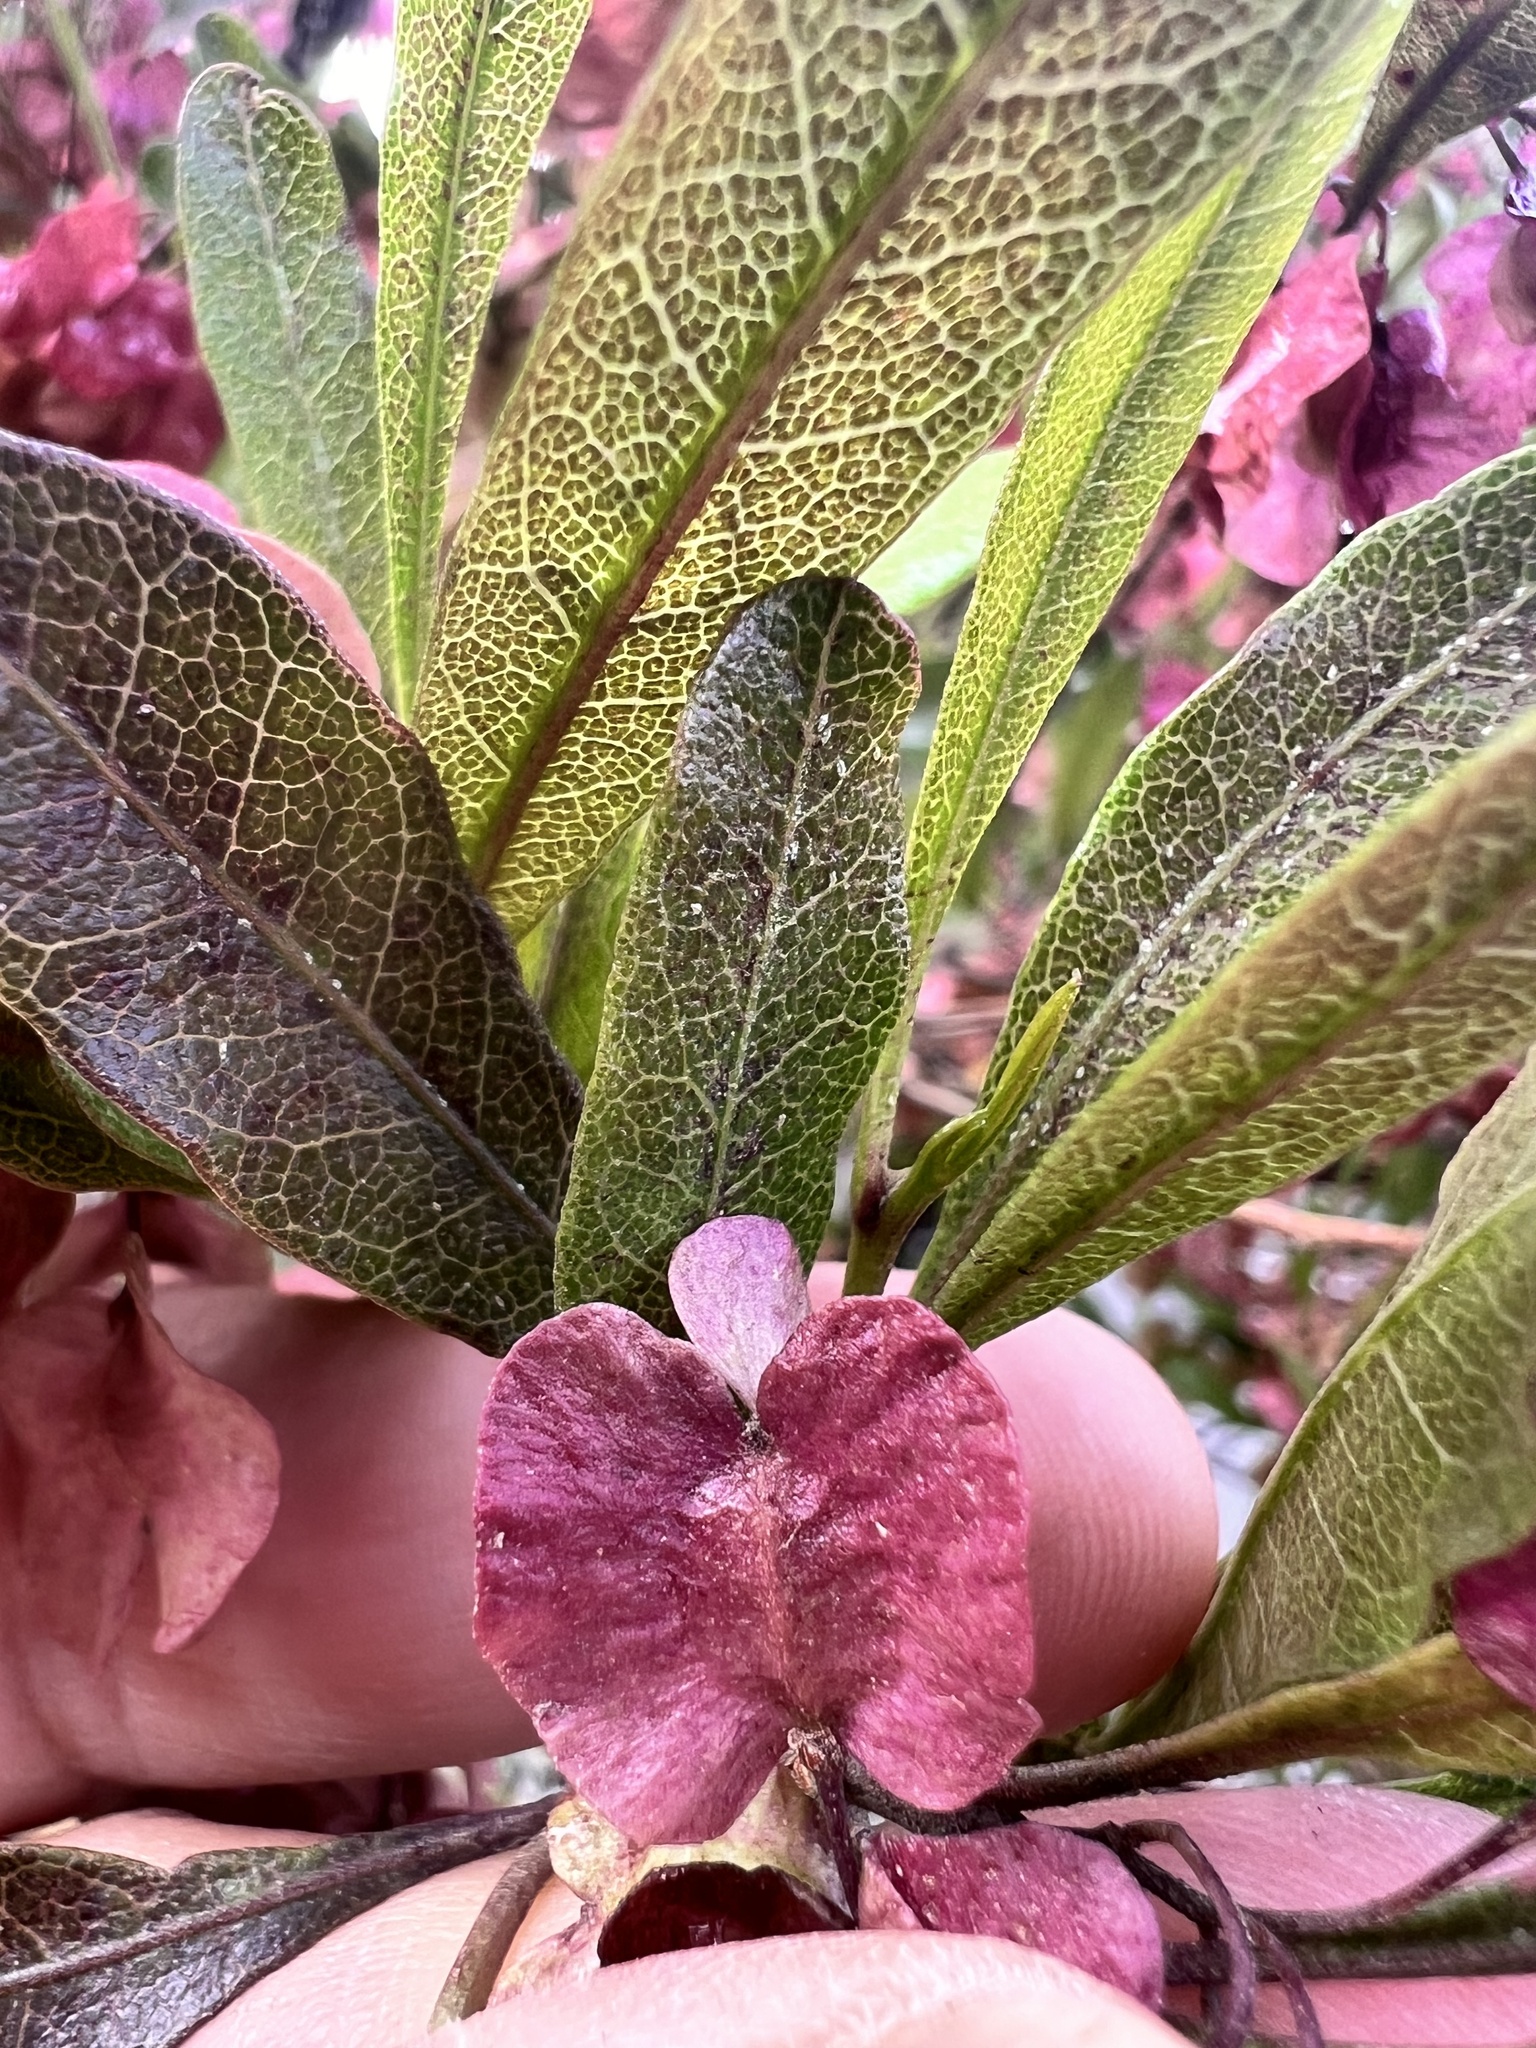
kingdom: Plantae
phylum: Tracheophyta
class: Magnoliopsida
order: Sapindales
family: Sapindaceae
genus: Dodonaea
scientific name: Dodonaea viscosa
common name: Hopbush
